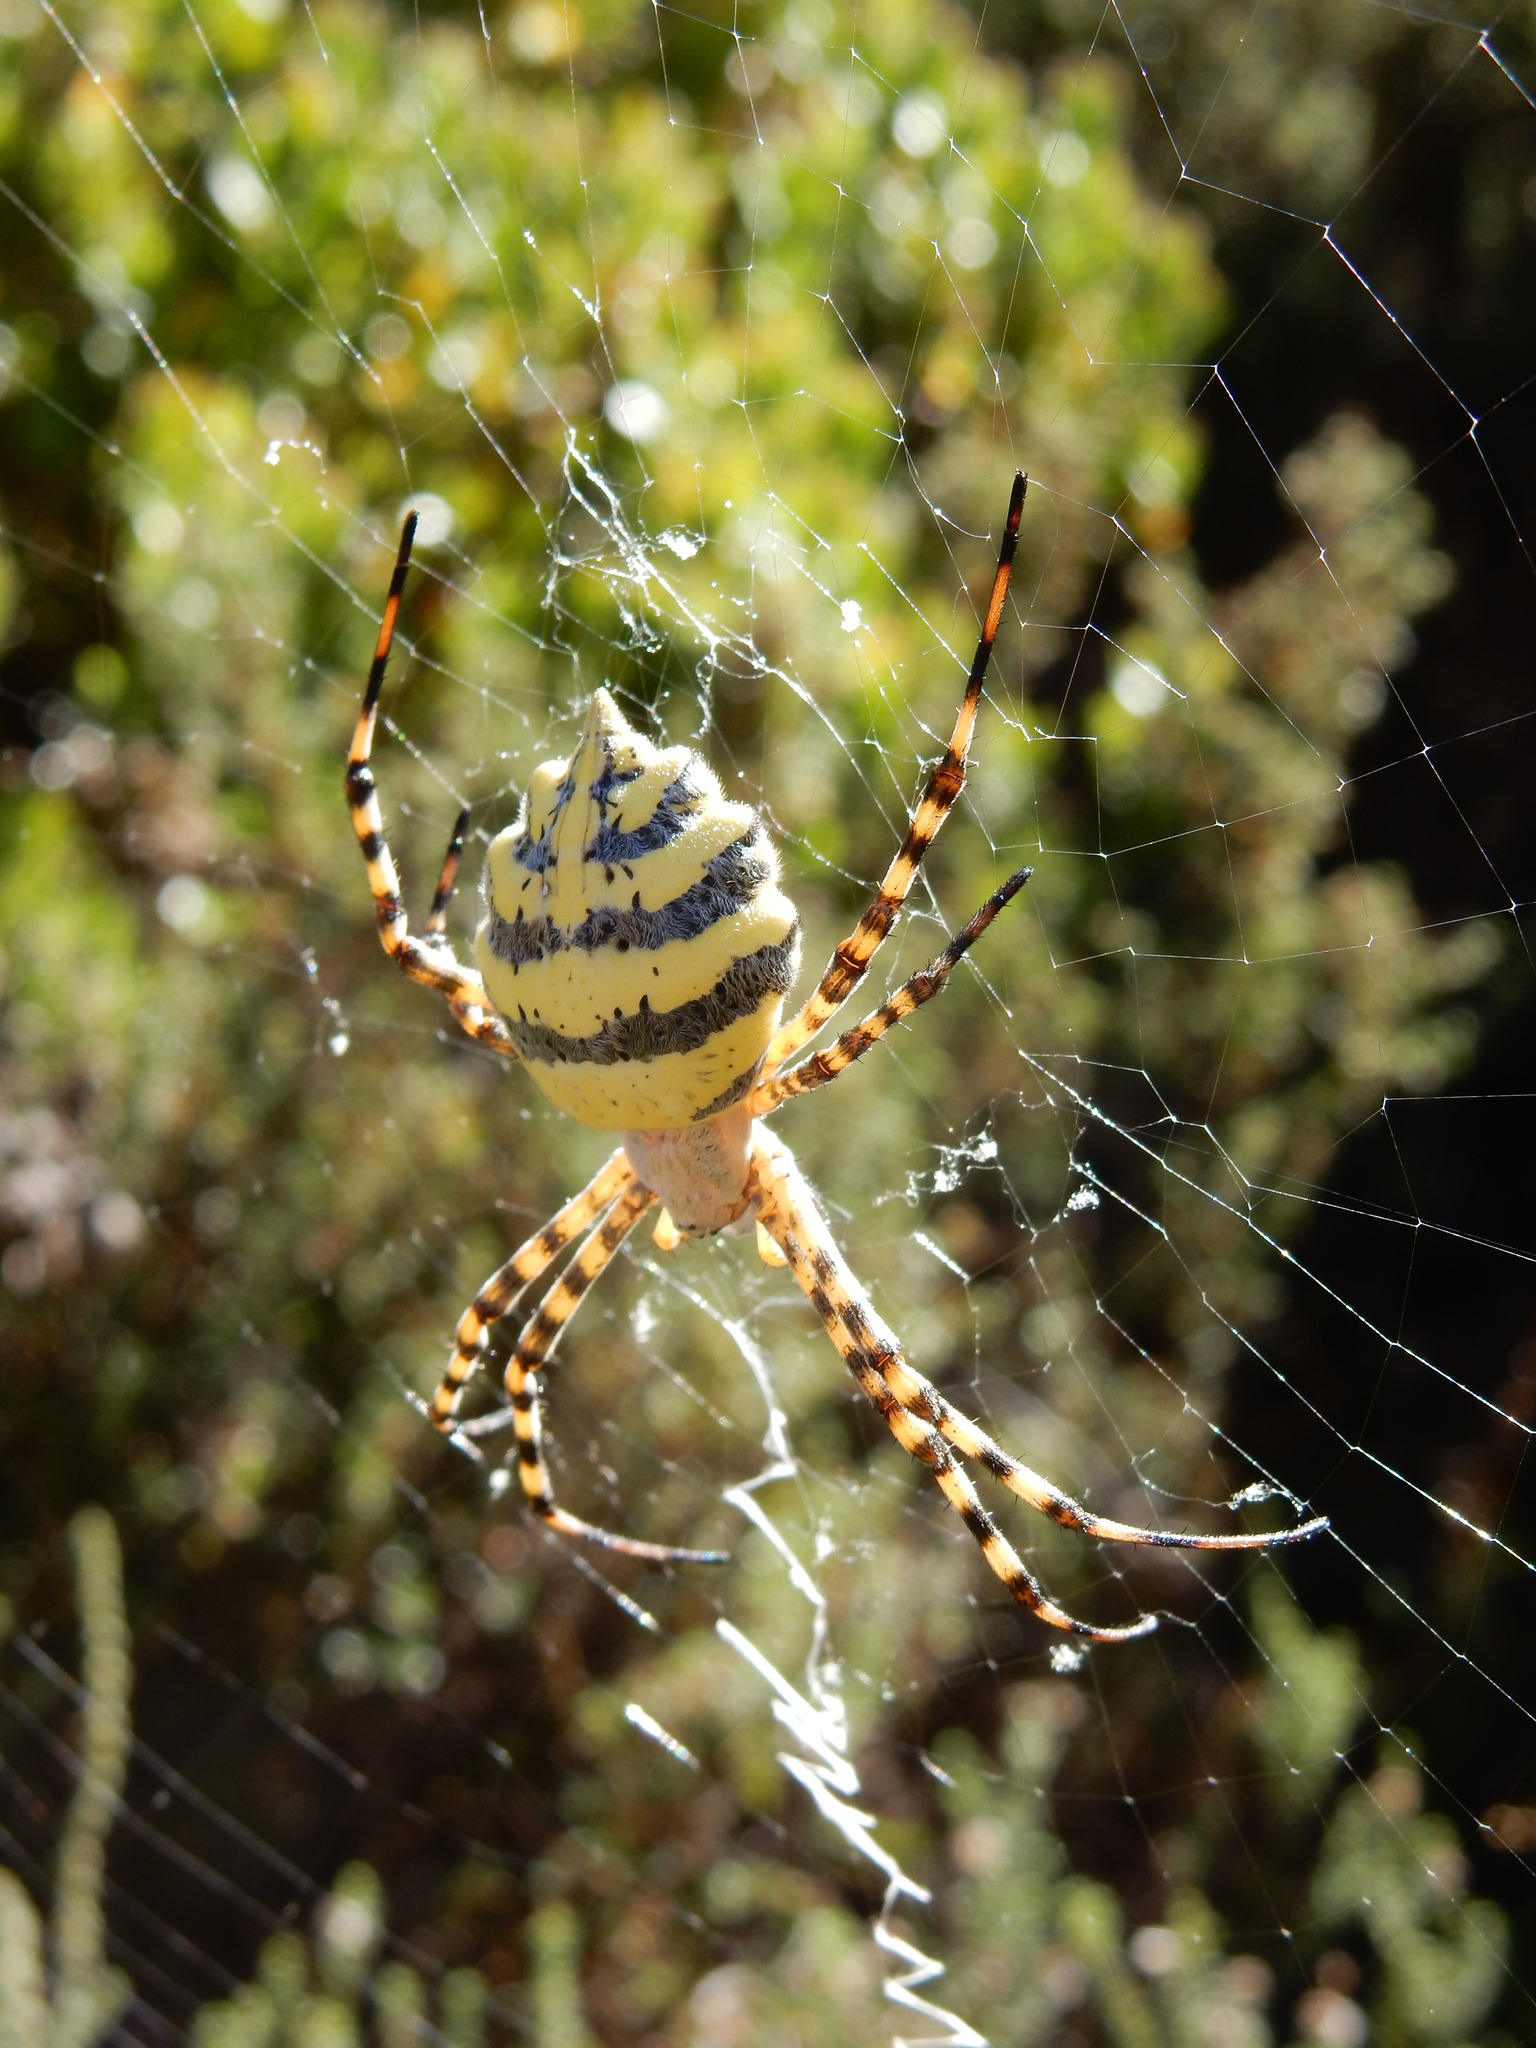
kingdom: Animalia
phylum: Arthropoda
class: Arachnida
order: Araneae
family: Araneidae
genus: Argiope
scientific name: Argiope australis
